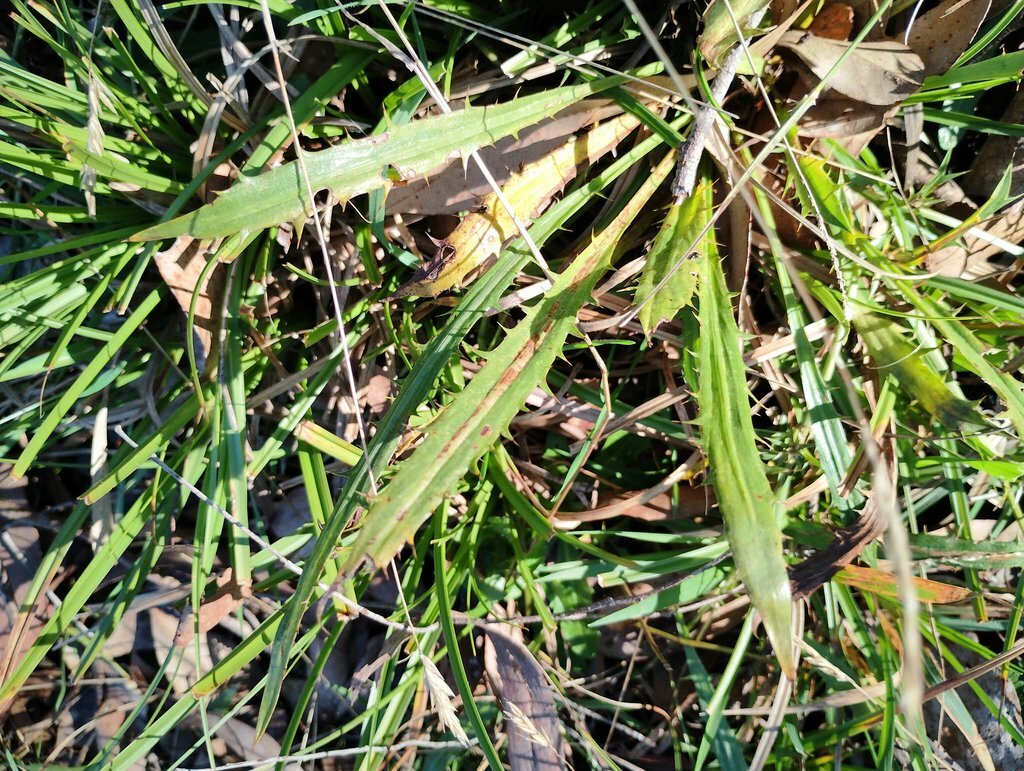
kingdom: Plantae
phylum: Tracheophyta
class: Magnoliopsida
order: Apiales
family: Apiaceae
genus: Eryngium
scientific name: Eryngium vesiculosum
